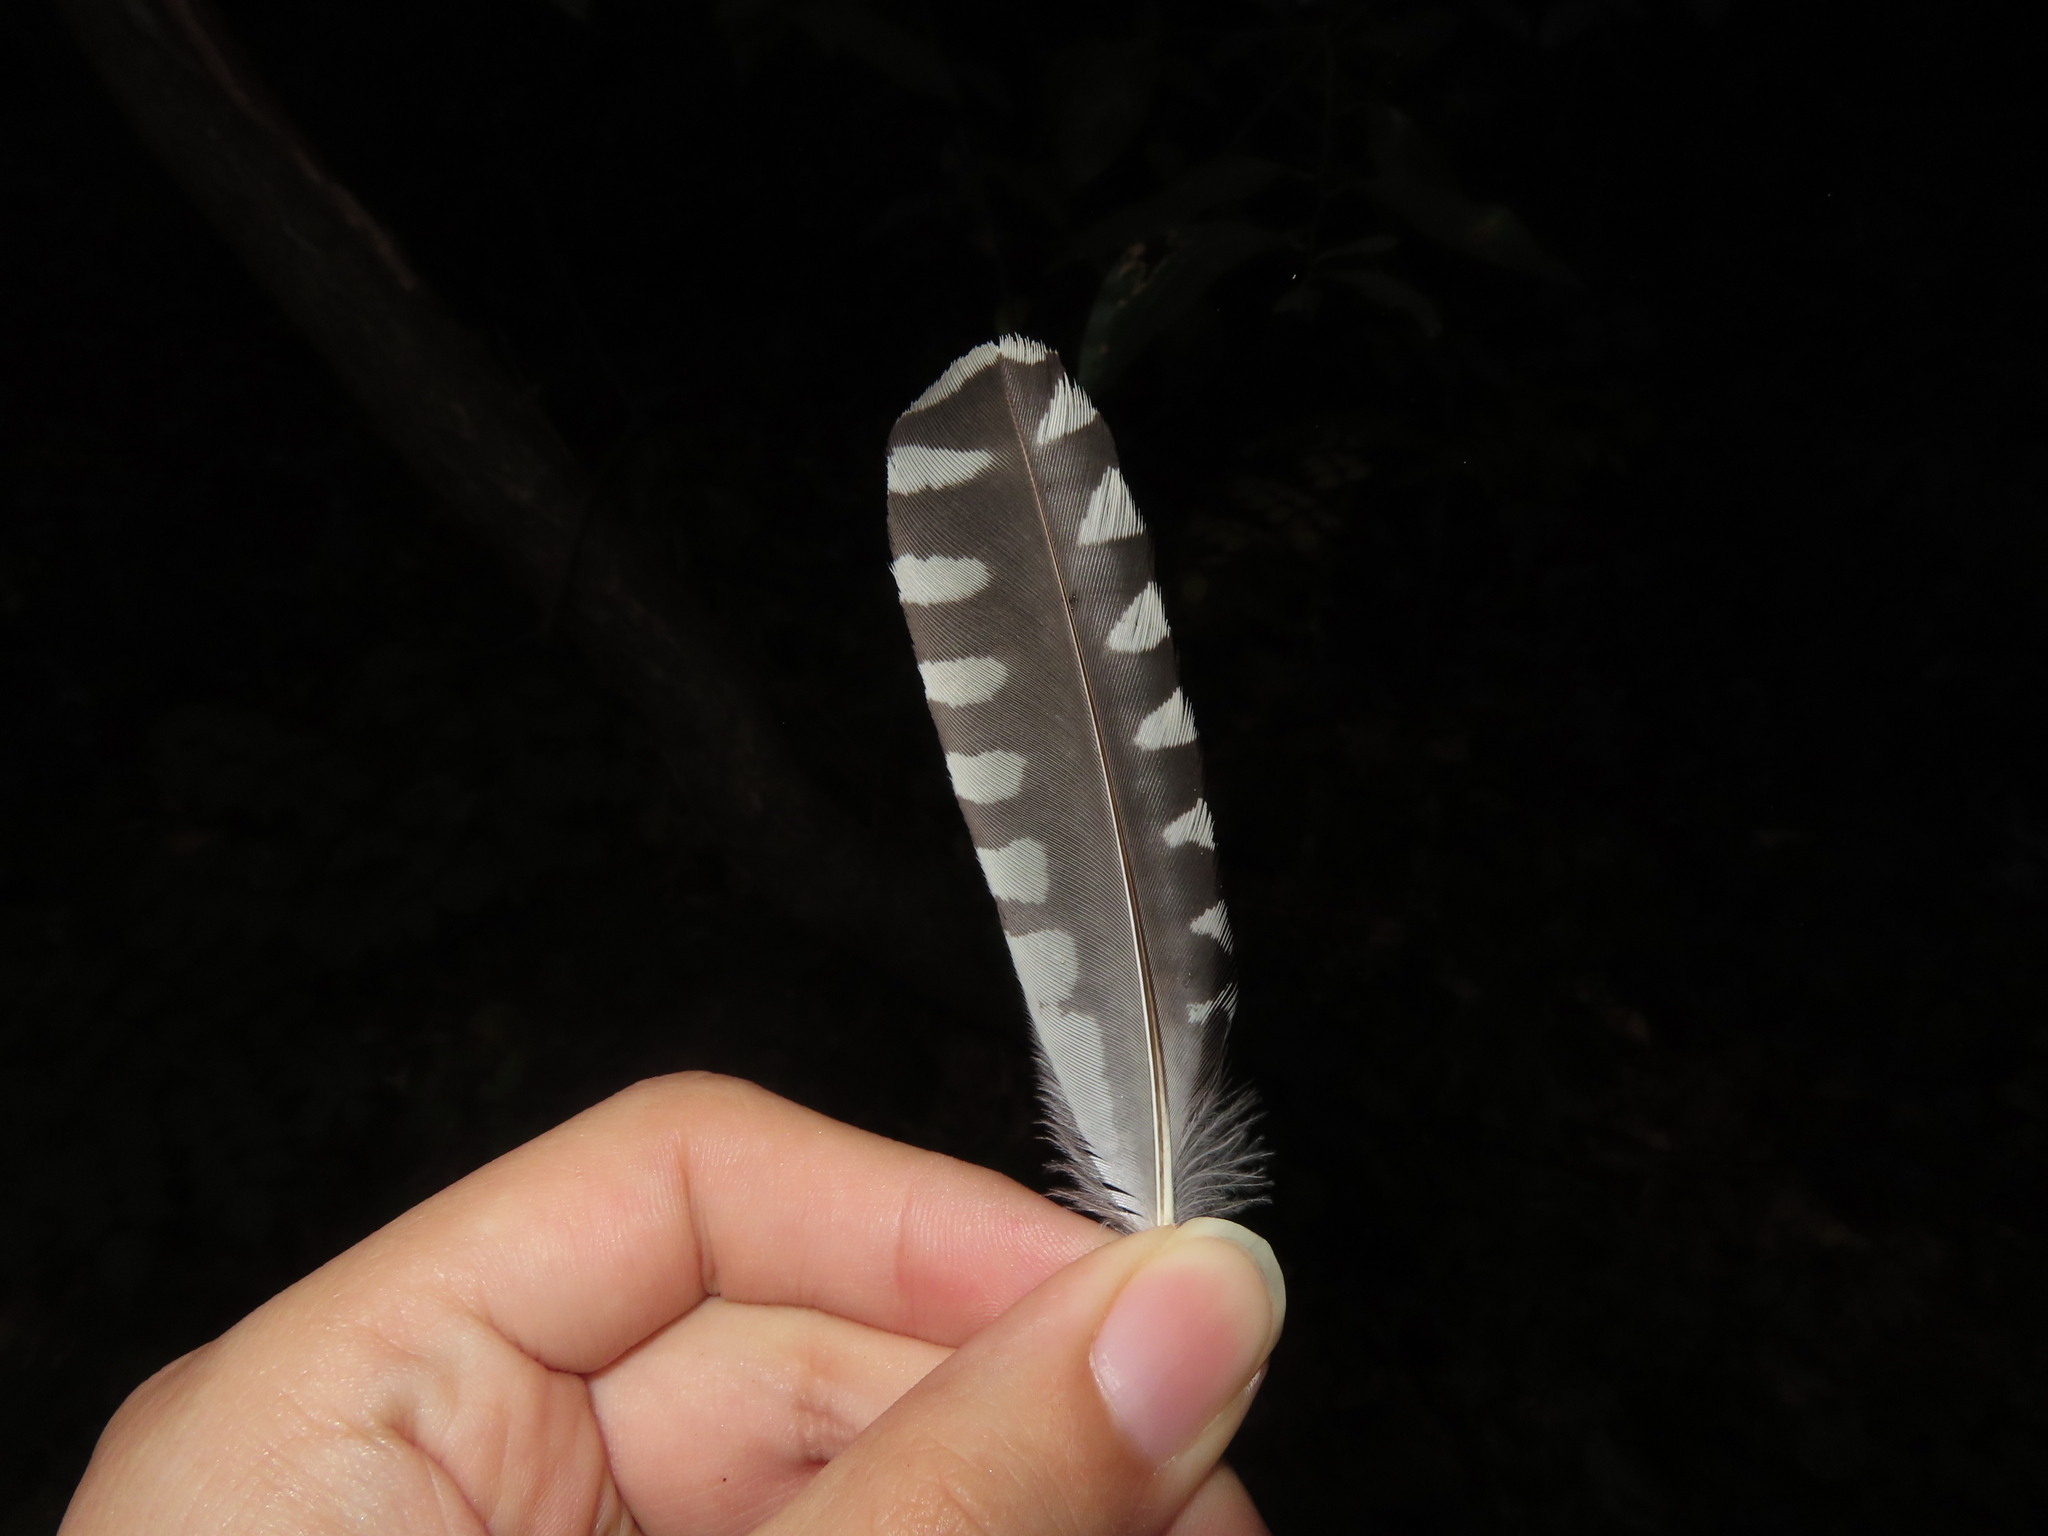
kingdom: Animalia
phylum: Chordata
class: Aves
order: Piciformes
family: Picidae
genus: Melanerpes
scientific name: Melanerpes carolinus
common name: Red-bellied woodpecker
